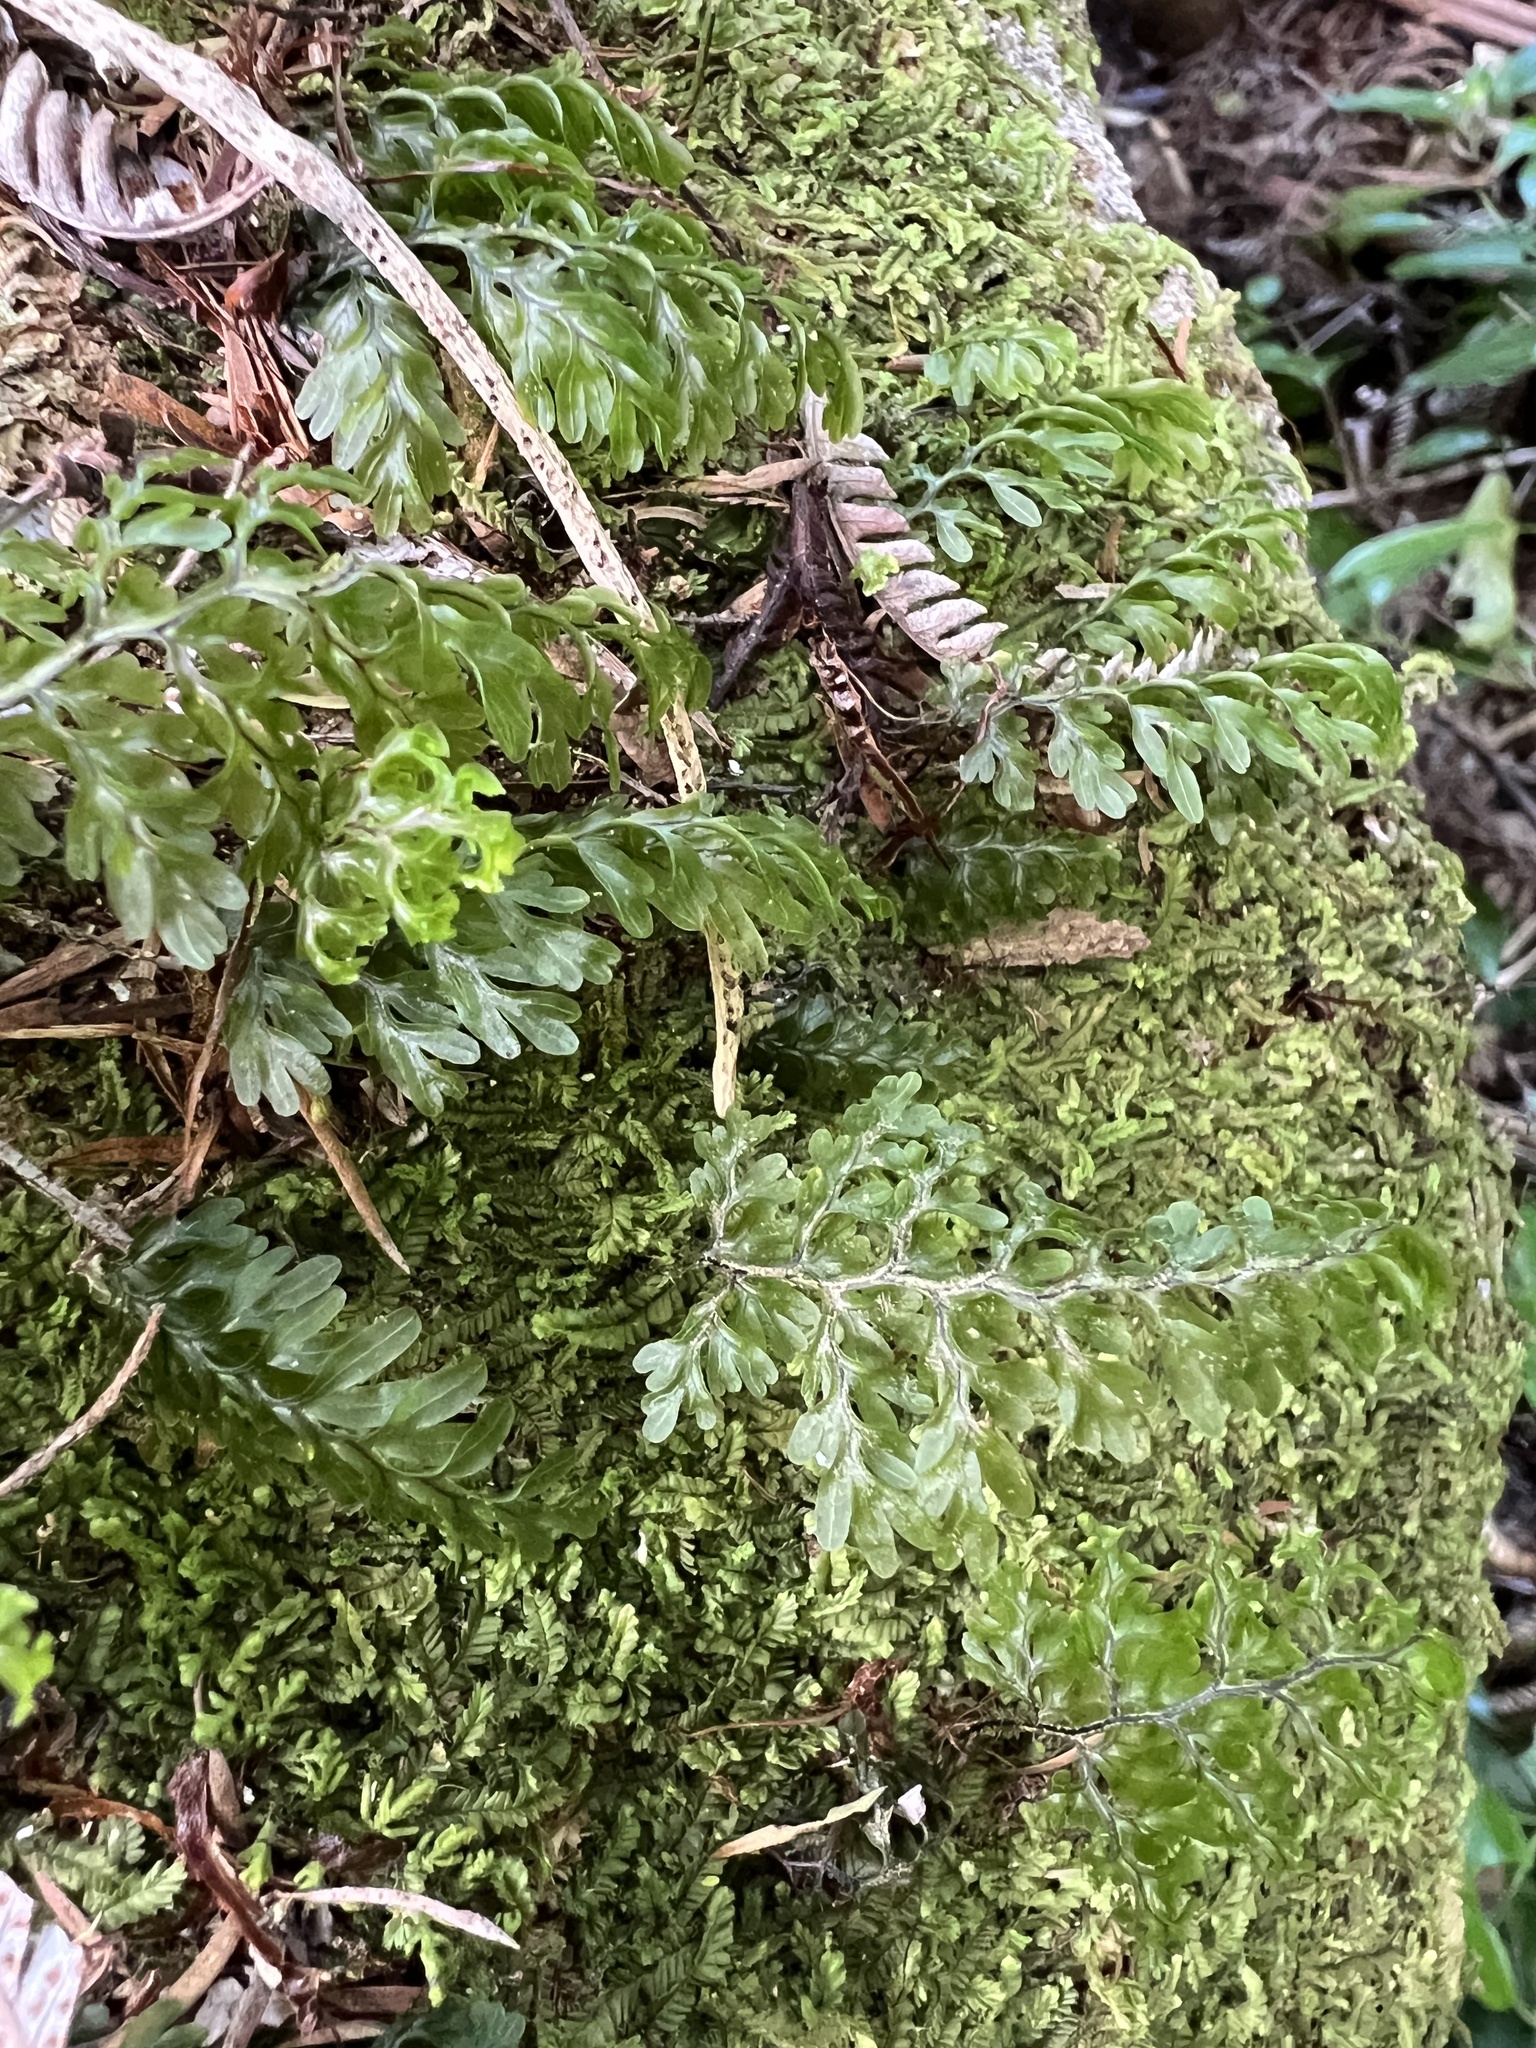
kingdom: Plantae
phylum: Tracheophyta
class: Polypodiopsida
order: Hymenophyllales
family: Hymenophyllaceae
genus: Hymenophyllum
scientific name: Hymenophyllum sanguinolentum
